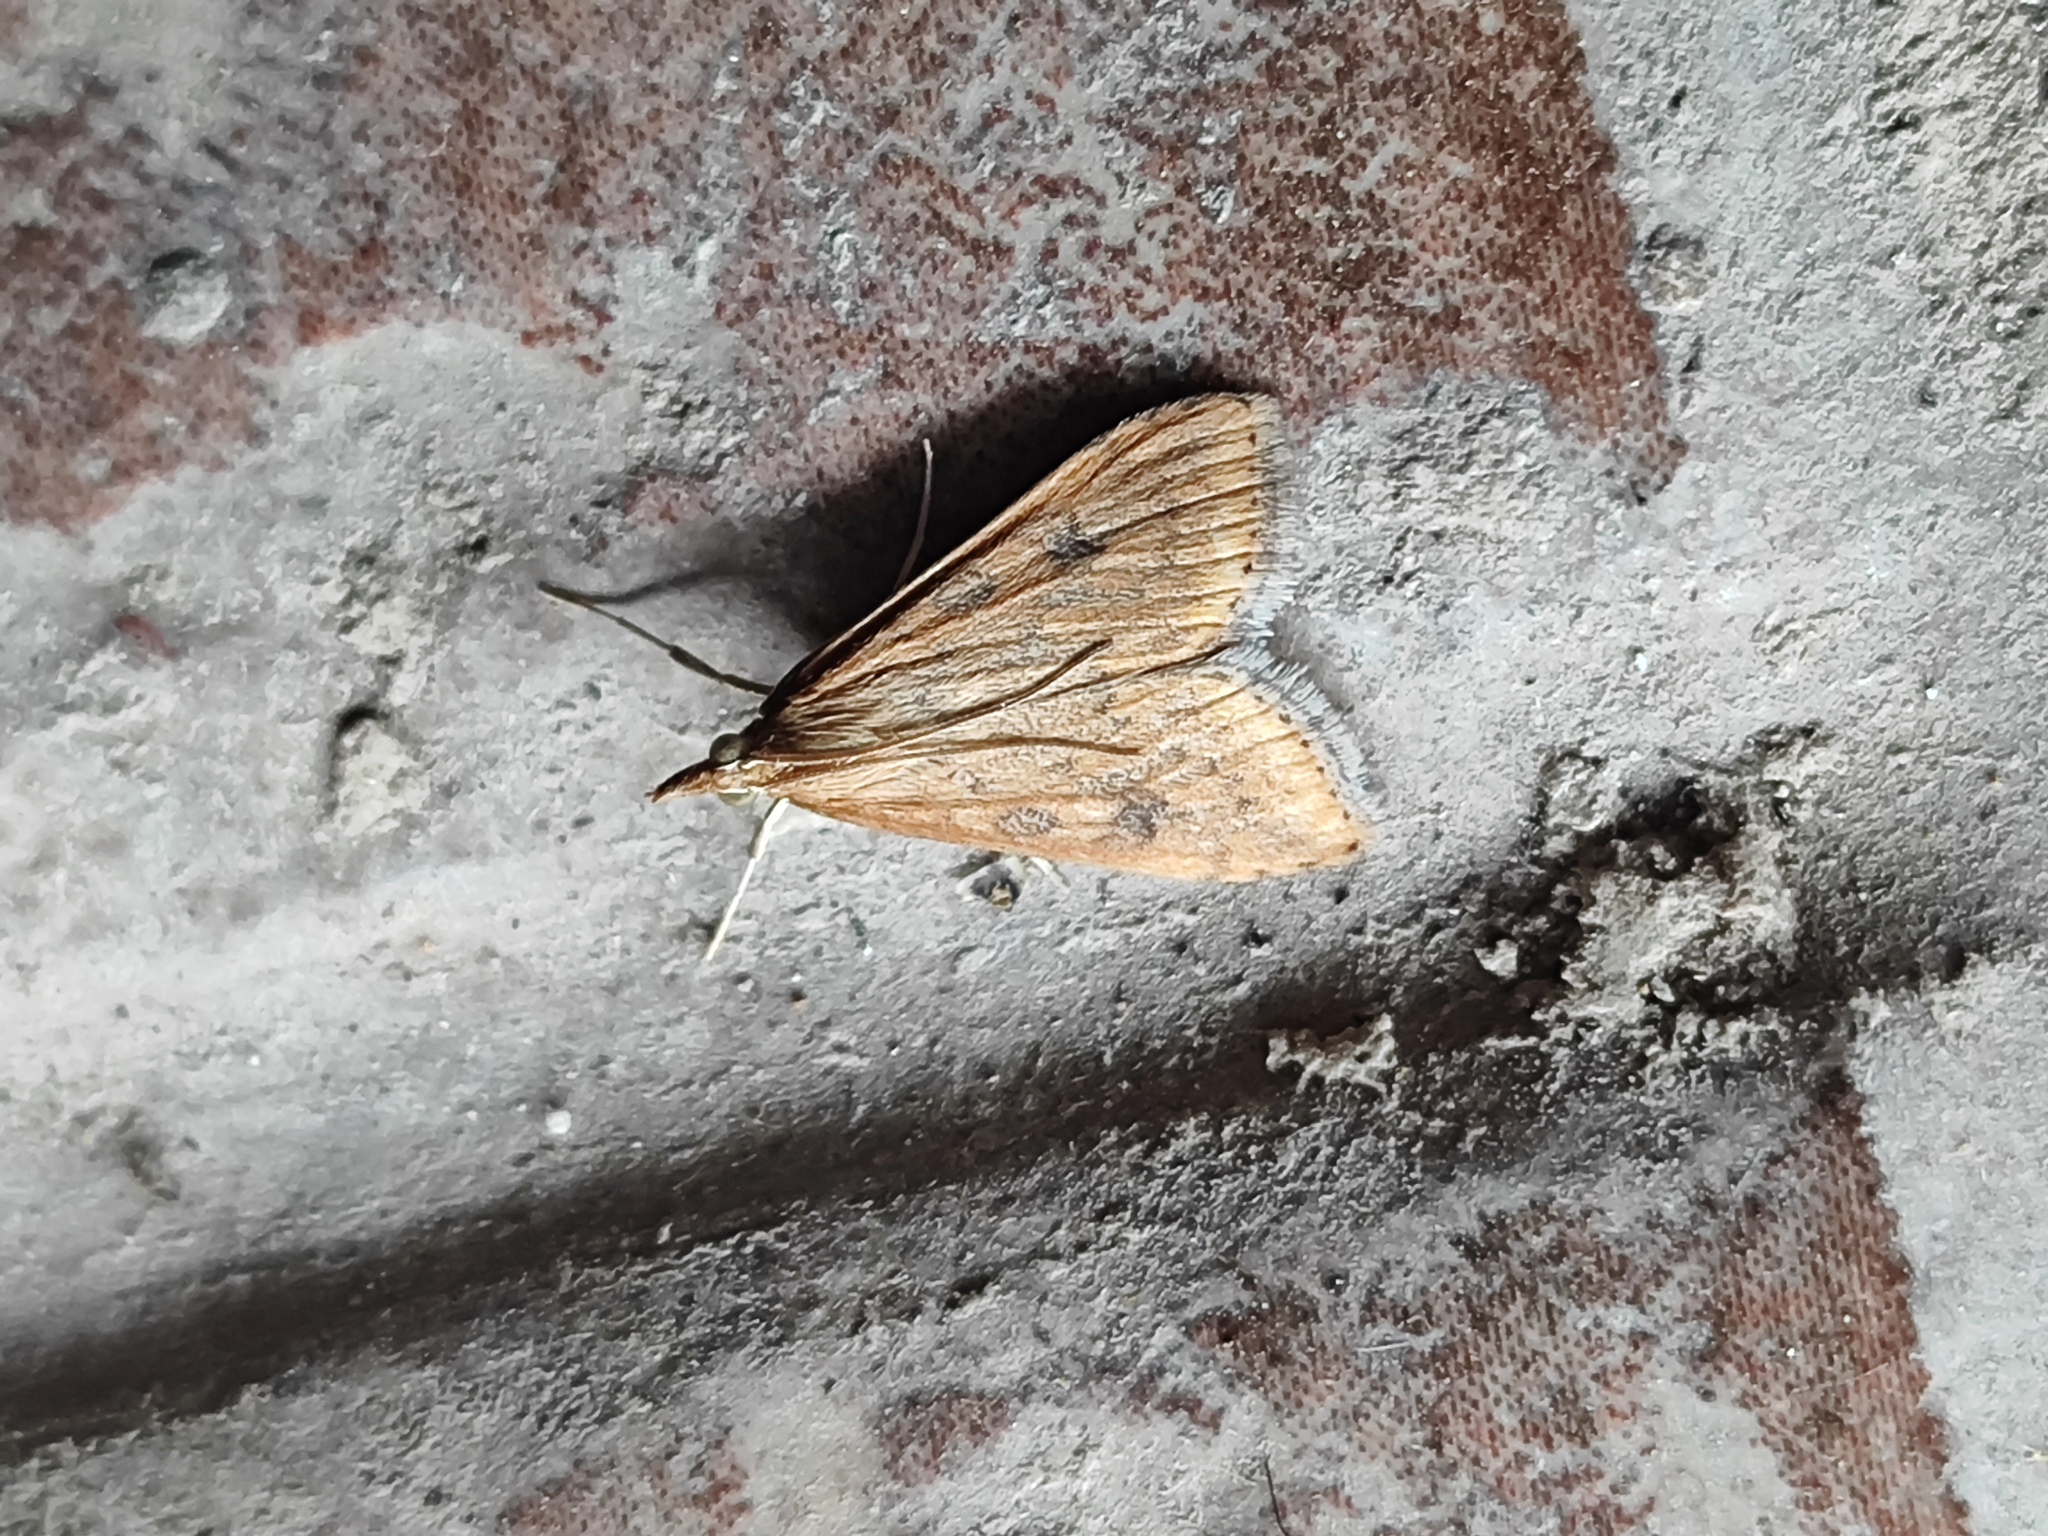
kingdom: Animalia
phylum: Arthropoda
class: Insecta
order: Lepidoptera
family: Crambidae
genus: Udea
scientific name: Udea ferrugalis
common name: Rusty dot
